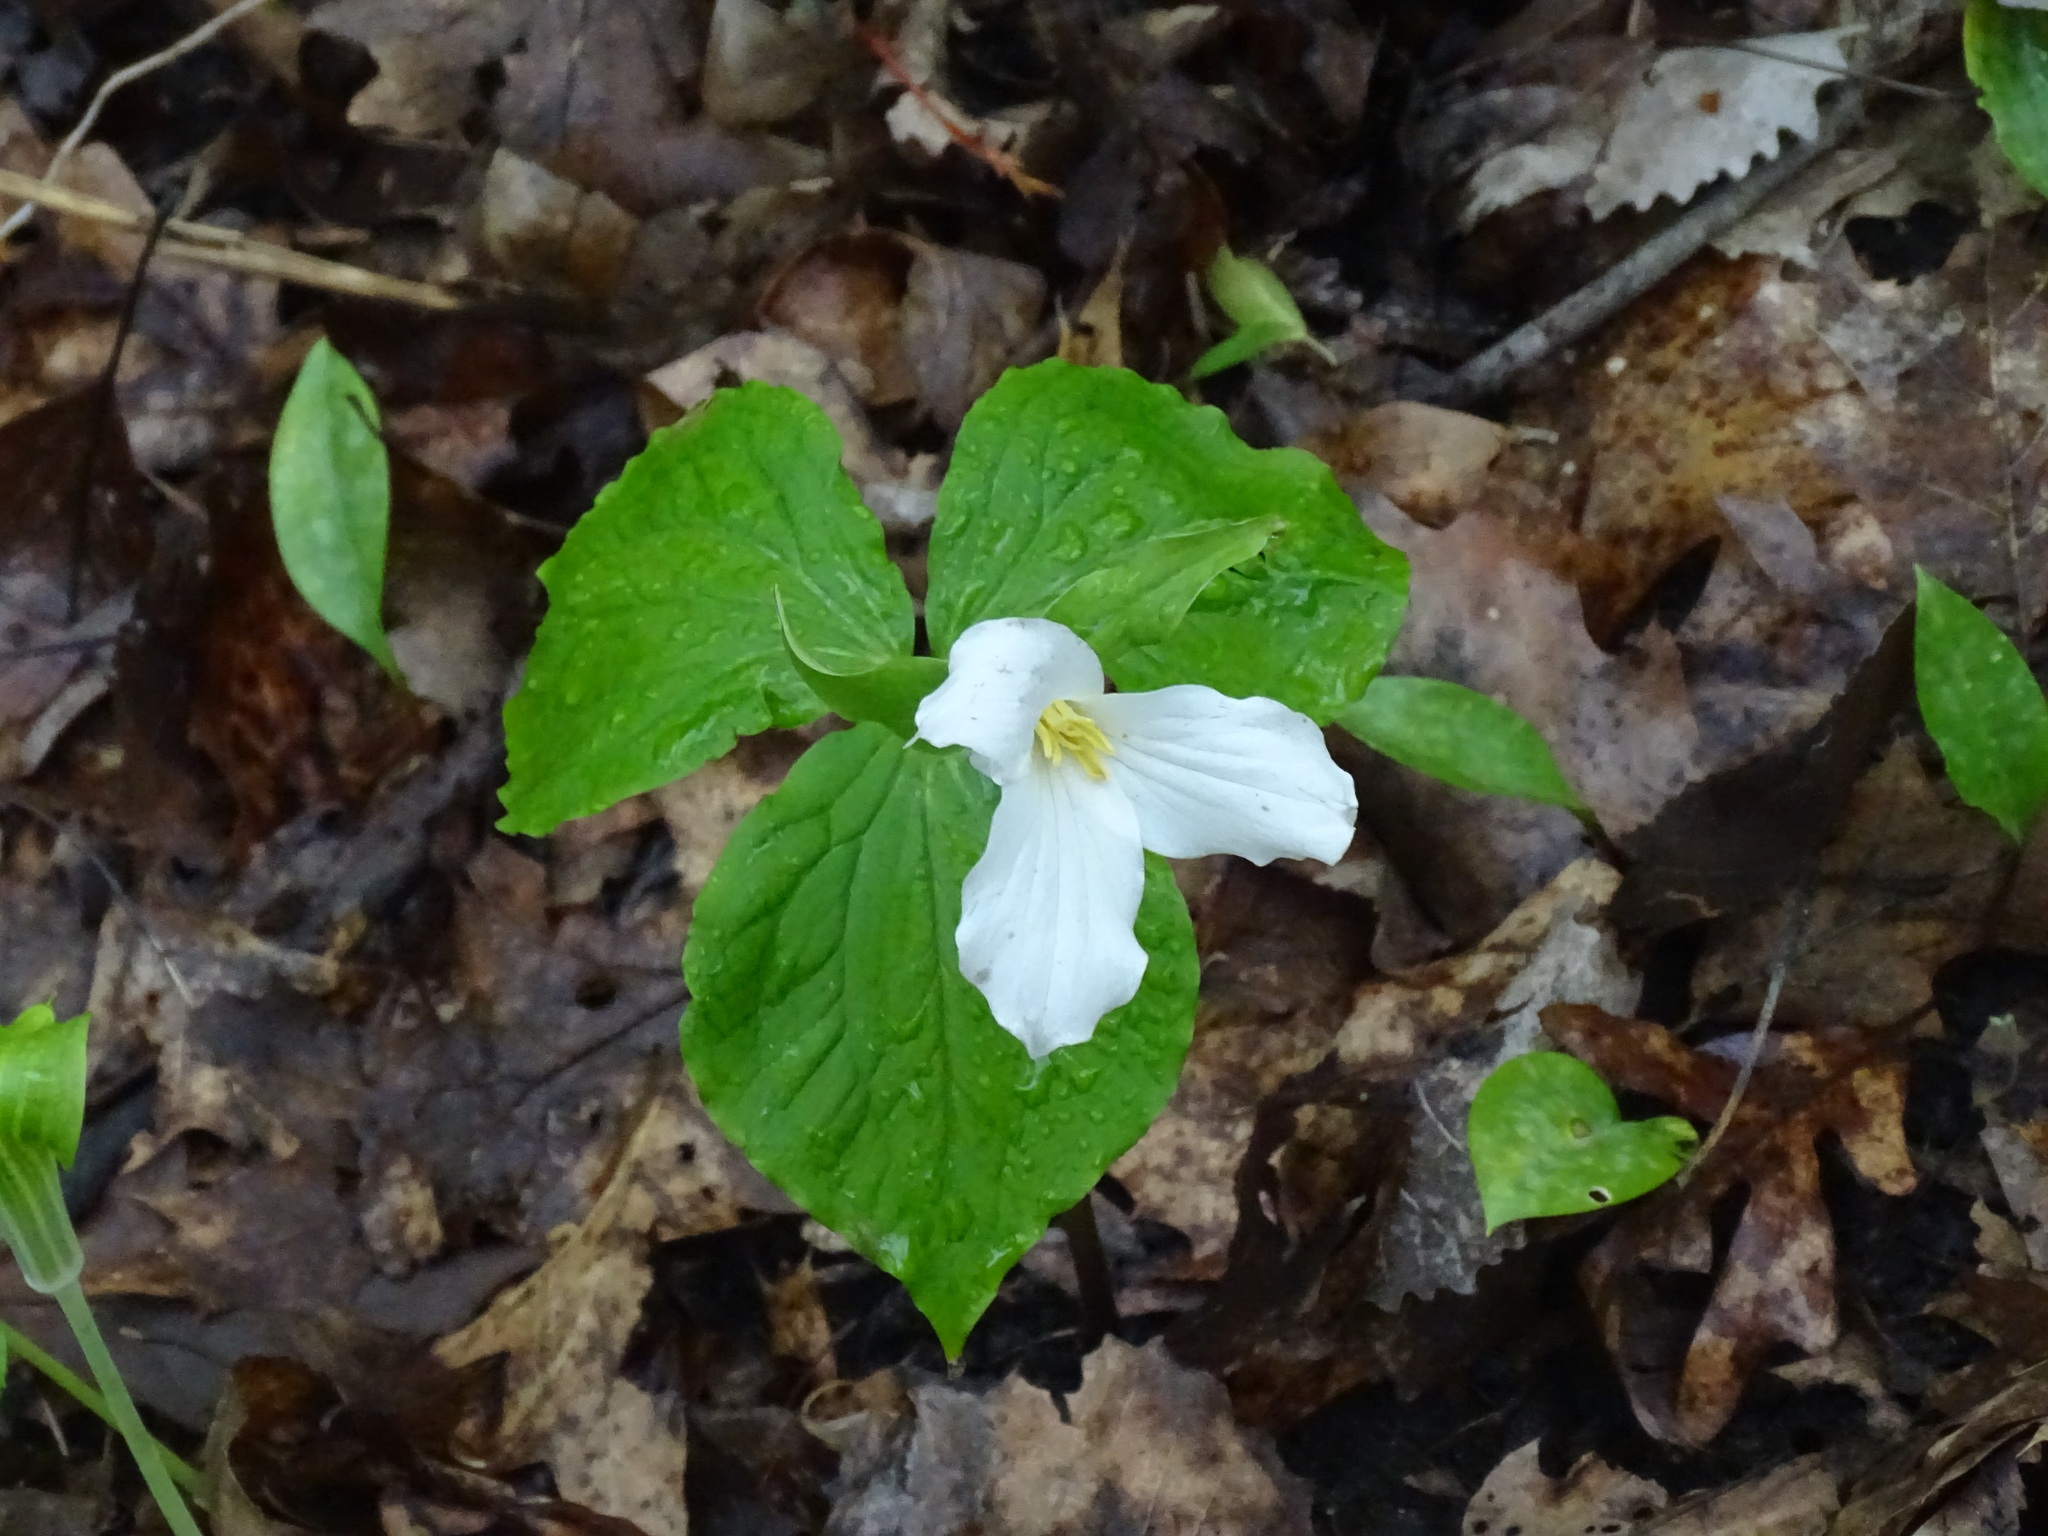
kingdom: Plantae
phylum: Tracheophyta
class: Liliopsida
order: Liliales
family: Melanthiaceae
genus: Trillium
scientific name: Trillium grandiflorum
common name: Great white trillium
